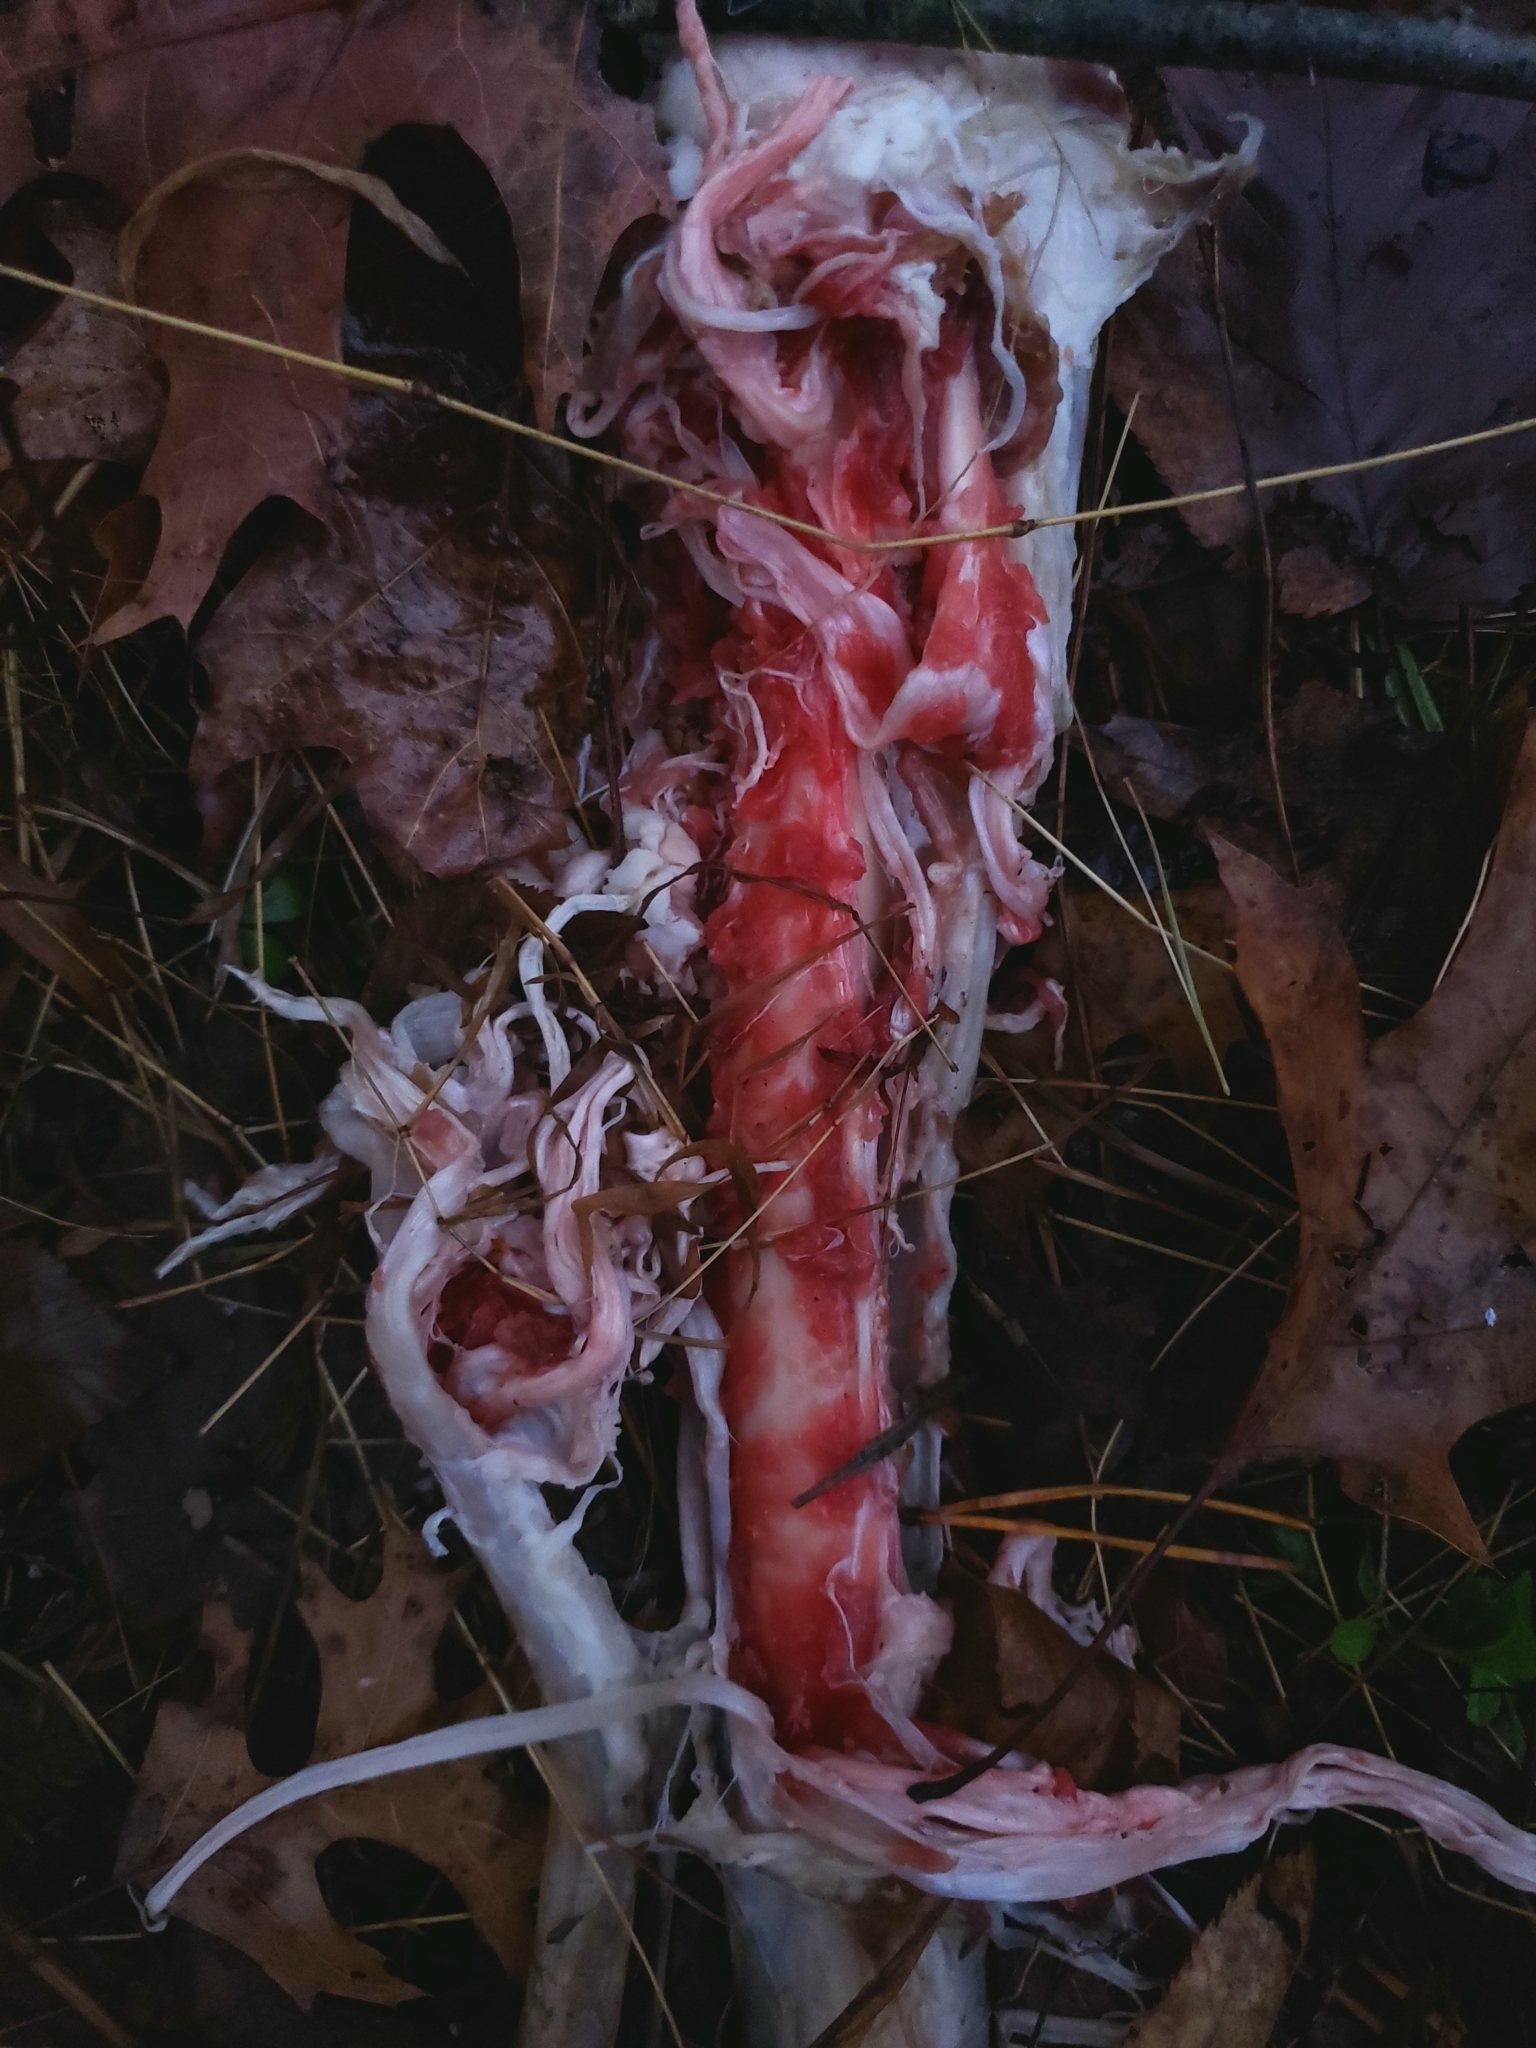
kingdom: Animalia
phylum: Chordata
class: Mammalia
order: Artiodactyla
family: Cervidae
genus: Odocoileus
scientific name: Odocoileus virginianus
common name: White-tailed deer
